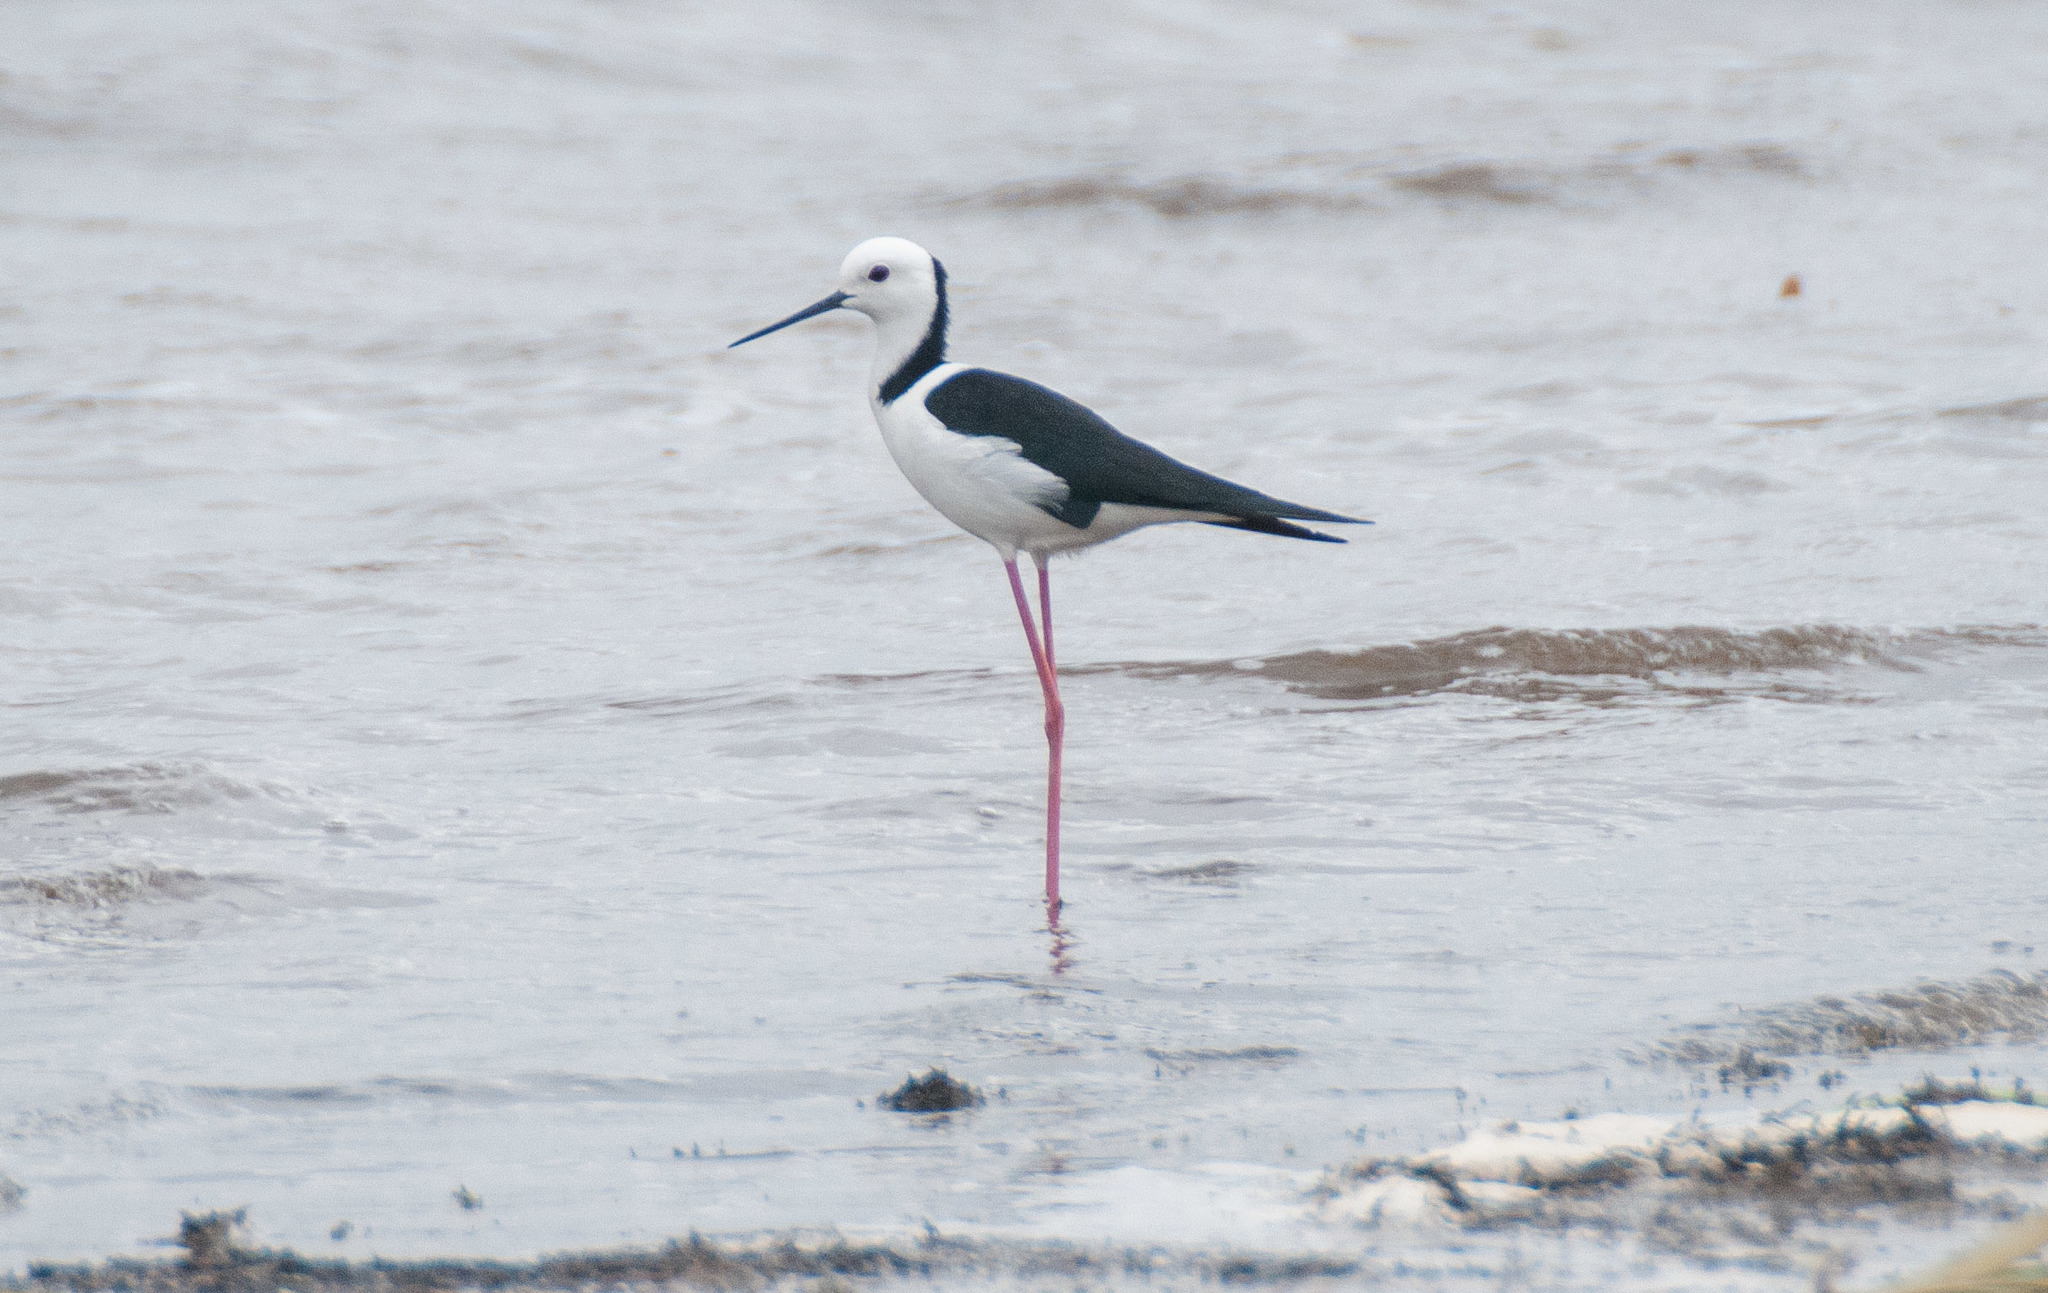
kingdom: Animalia
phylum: Chordata
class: Aves
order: Charadriiformes
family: Recurvirostridae
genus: Himantopus
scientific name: Himantopus leucocephalus
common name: White-headed stilt
